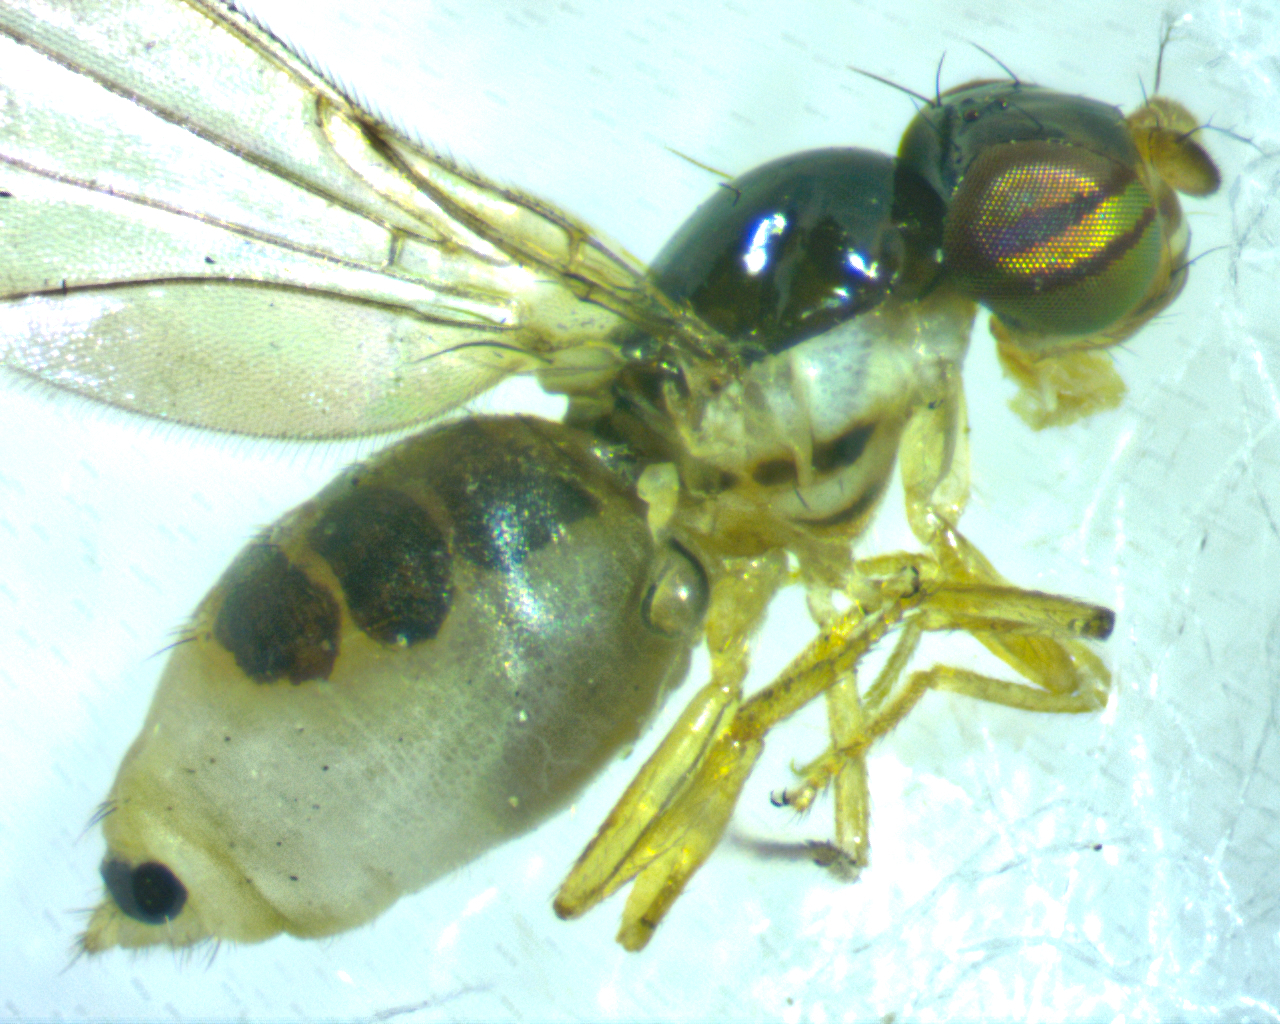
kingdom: Animalia
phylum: Arthropoda
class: Insecta
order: Diptera
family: Asteiidae
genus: Asteia
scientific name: Asteia beata
